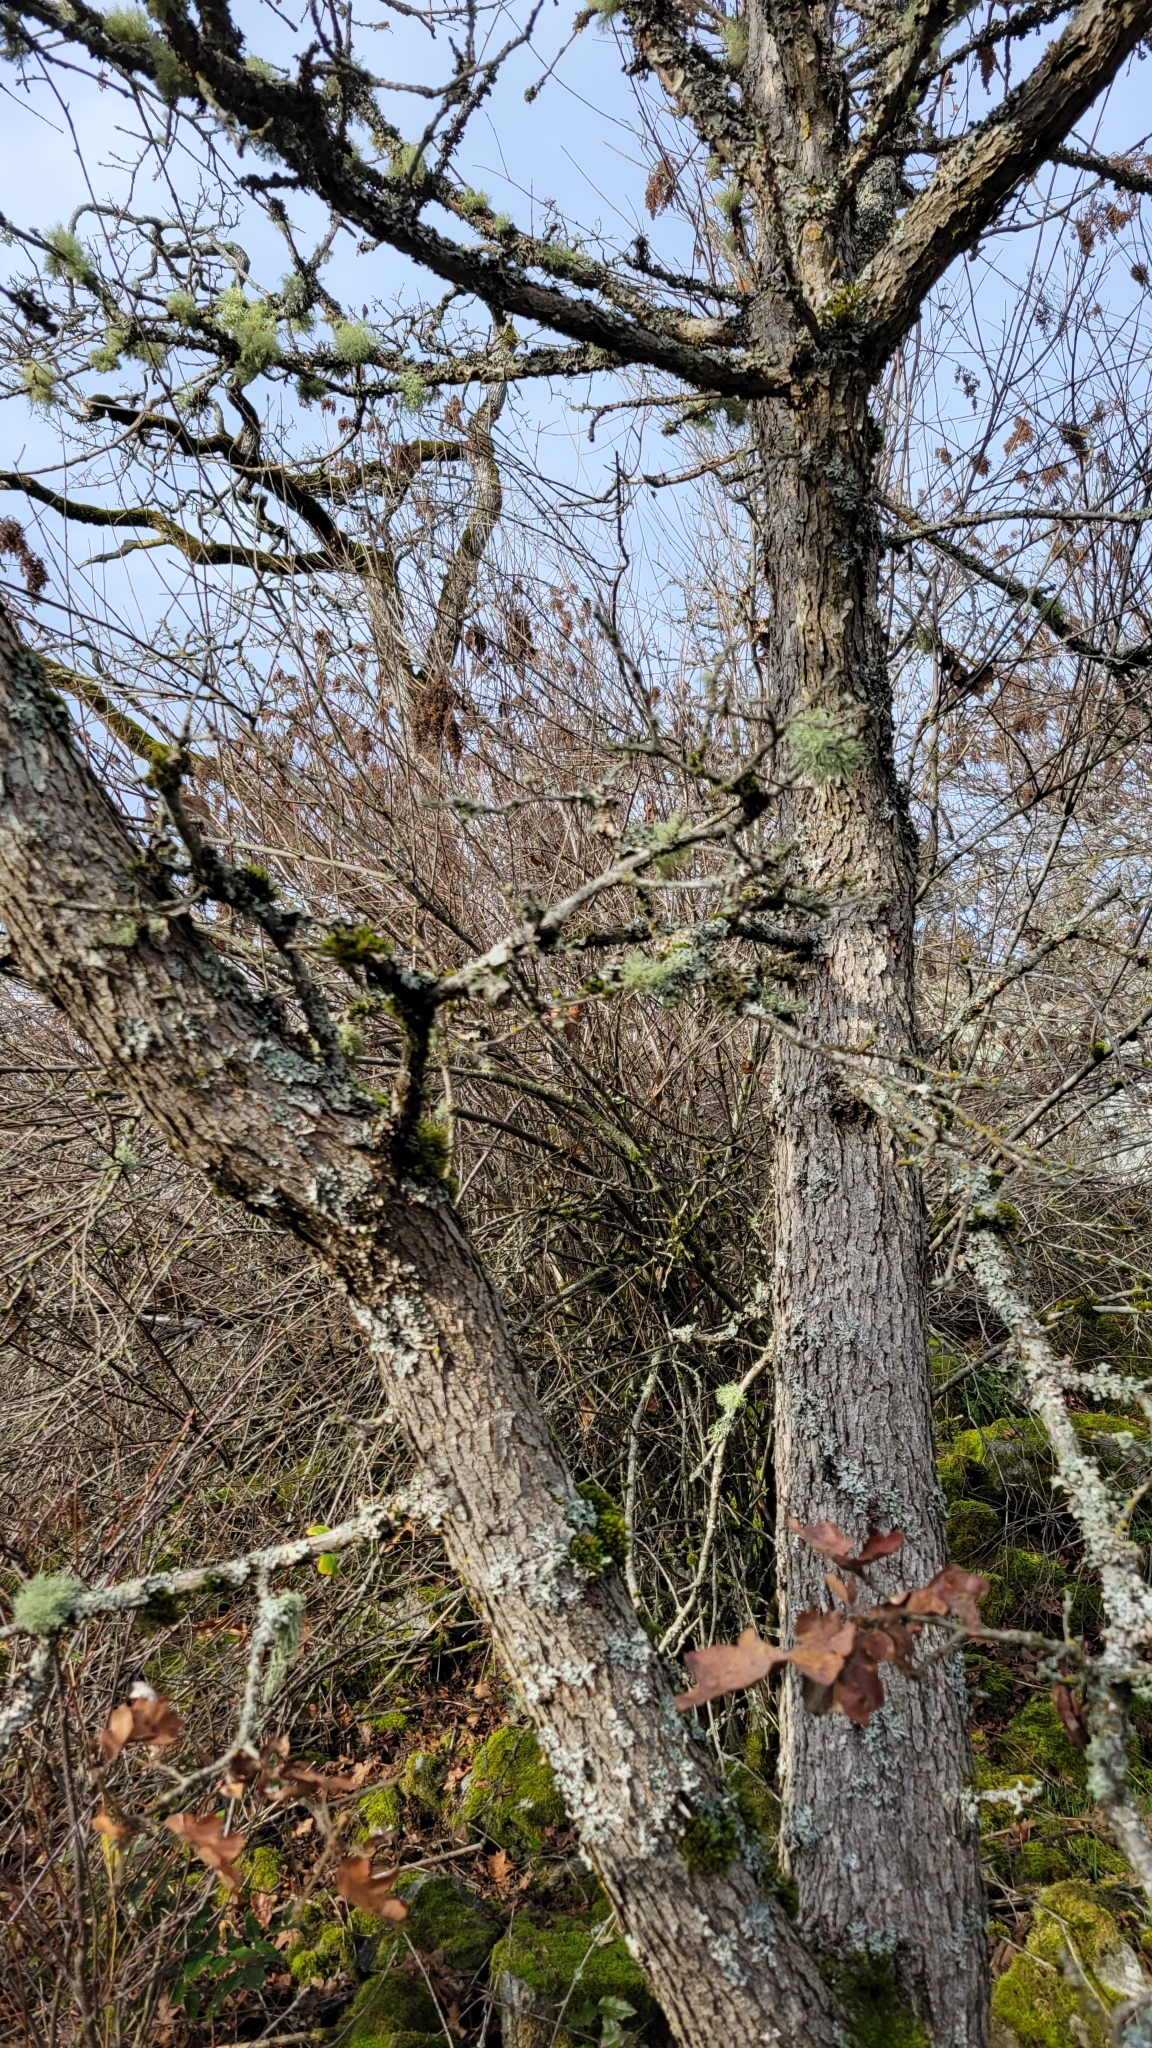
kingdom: Plantae
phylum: Tracheophyta
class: Magnoliopsida
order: Fagales
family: Fagaceae
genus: Quercus
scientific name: Quercus garryana
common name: Garry oak
